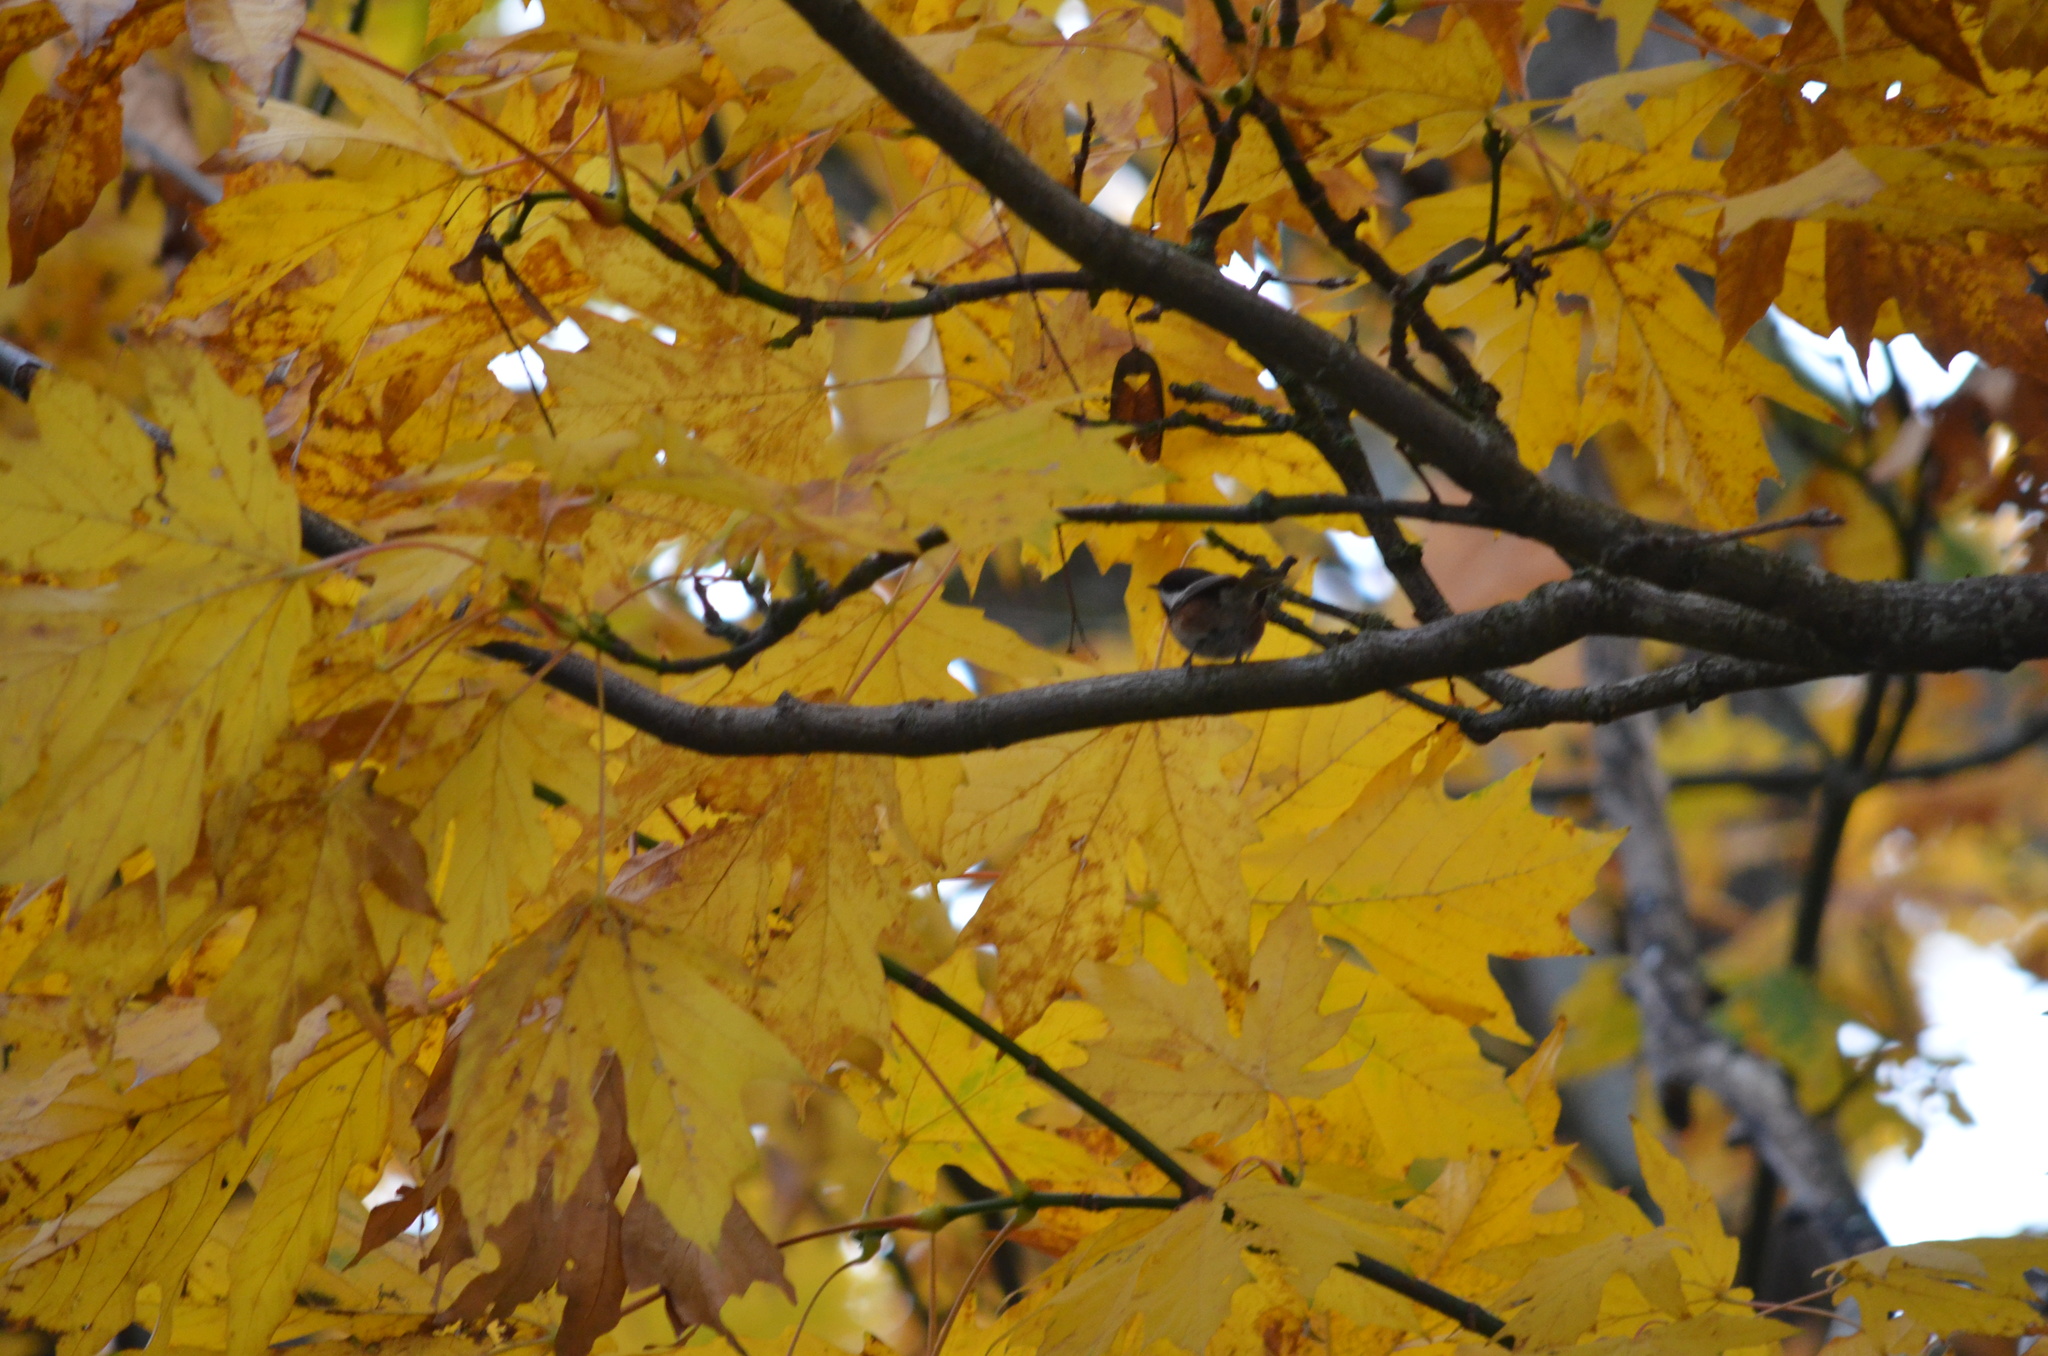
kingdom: Animalia
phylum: Chordata
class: Aves
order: Passeriformes
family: Paridae
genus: Poecile
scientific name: Poecile rufescens
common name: Chestnut-backed chickadee
